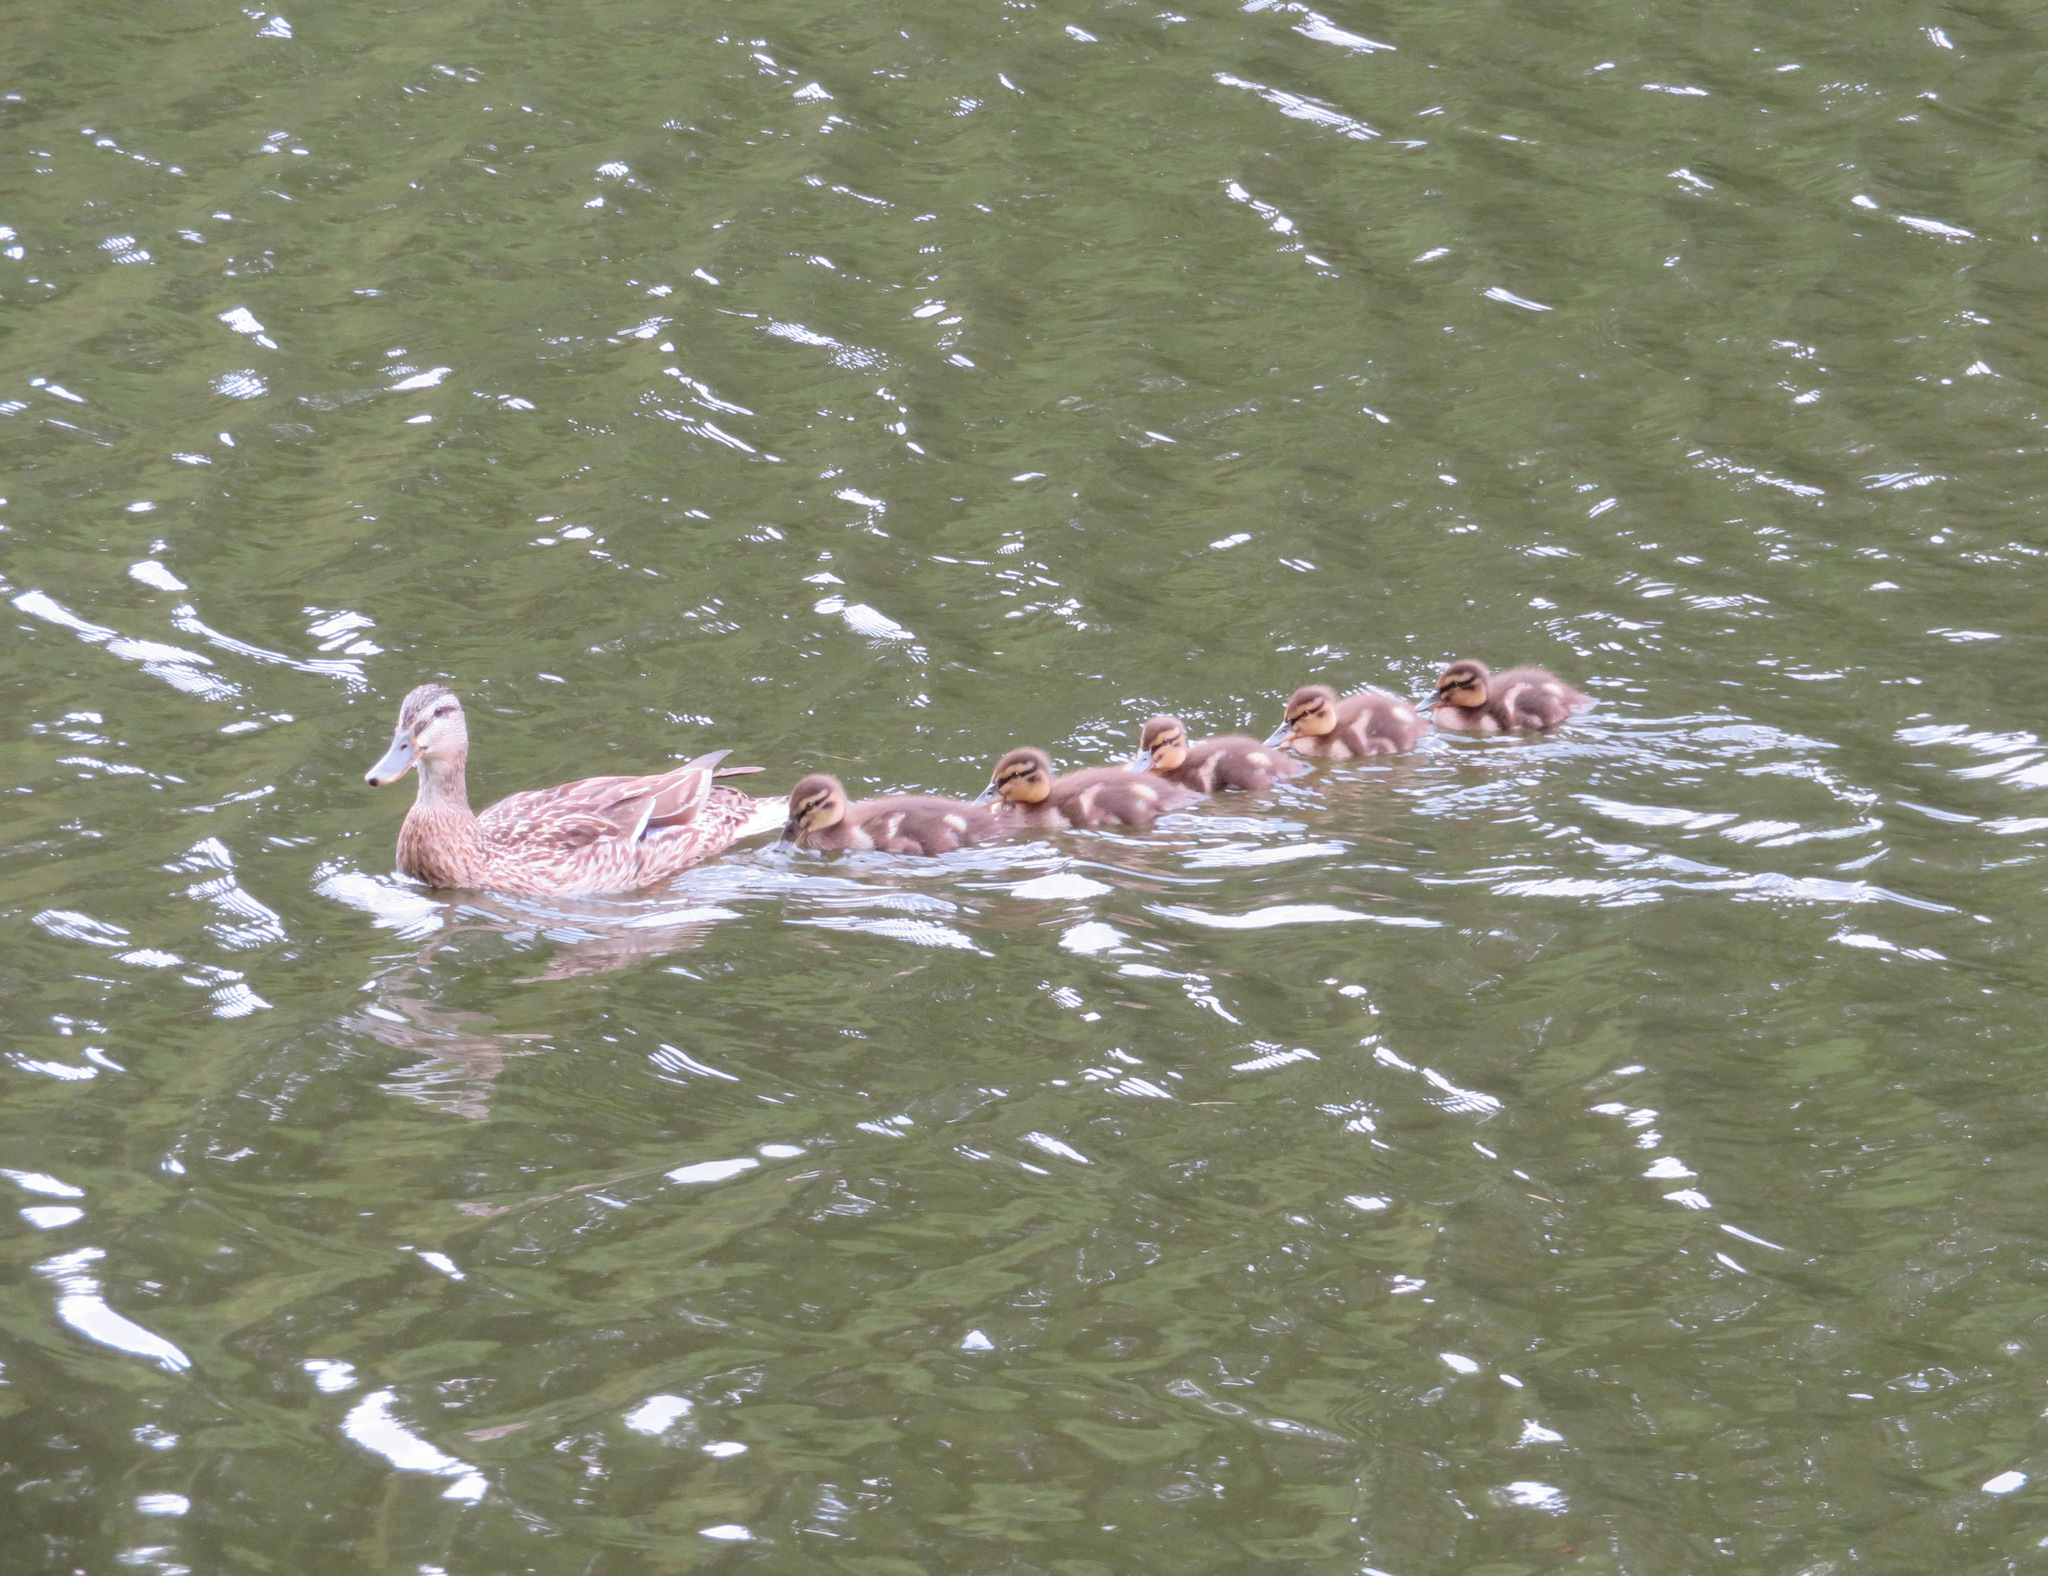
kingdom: Animalia
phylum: Chordata
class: Aves
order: Anseriformes
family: Anatidae
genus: Anas
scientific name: Anas platyrhynchos
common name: Mallard
